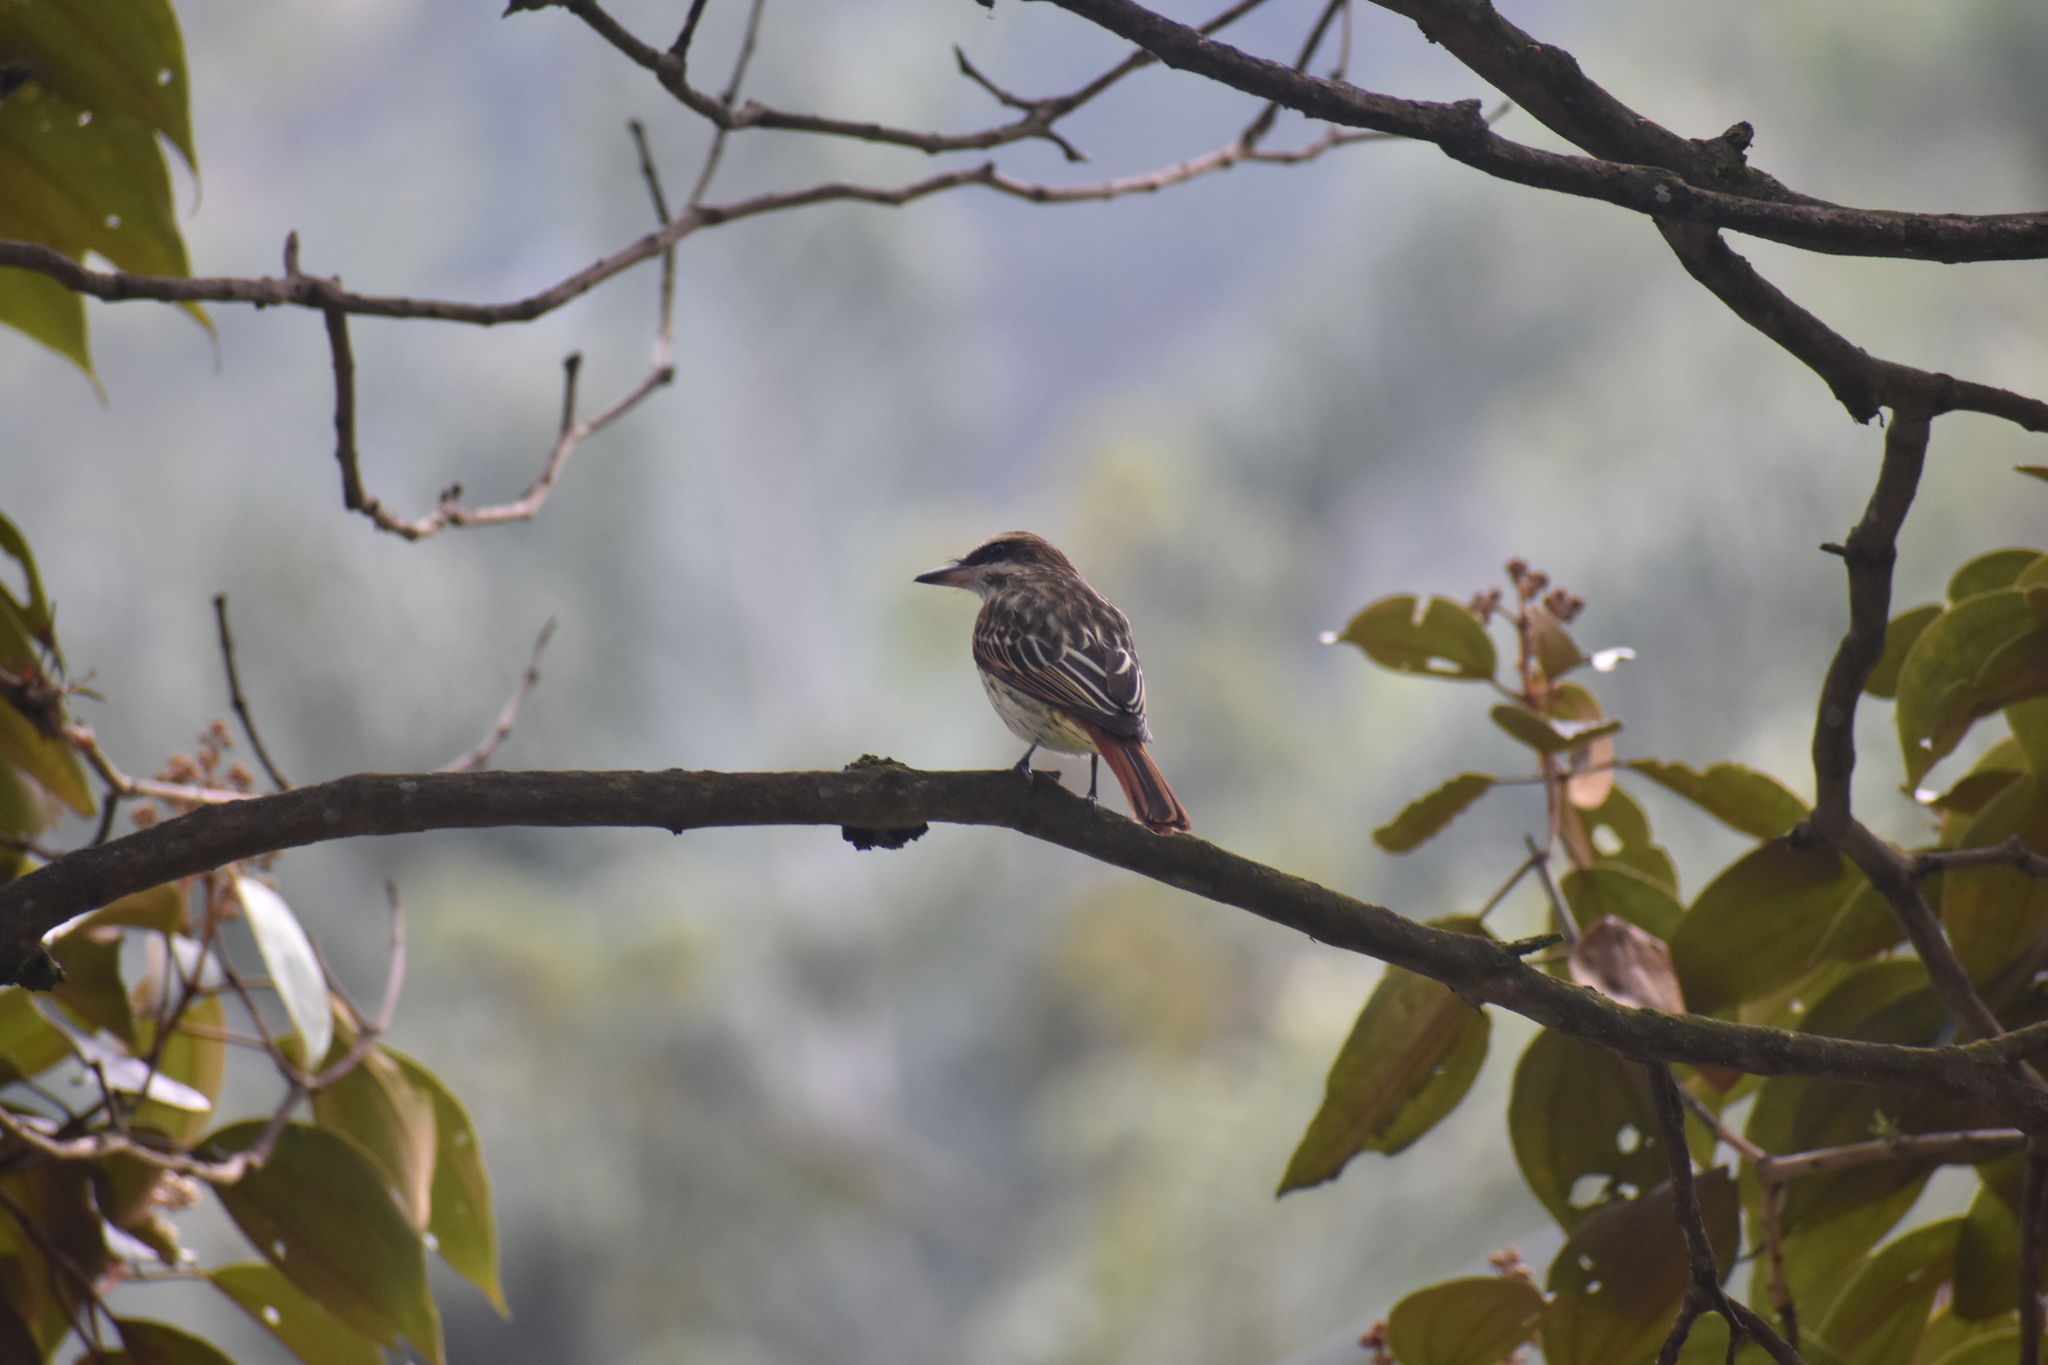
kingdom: Animalia
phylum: Chordata
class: Aves
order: Passeriformes
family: Tyrannidae
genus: Myiodynastes
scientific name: Myiodynastes maculatus
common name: Streaked flycatcher
